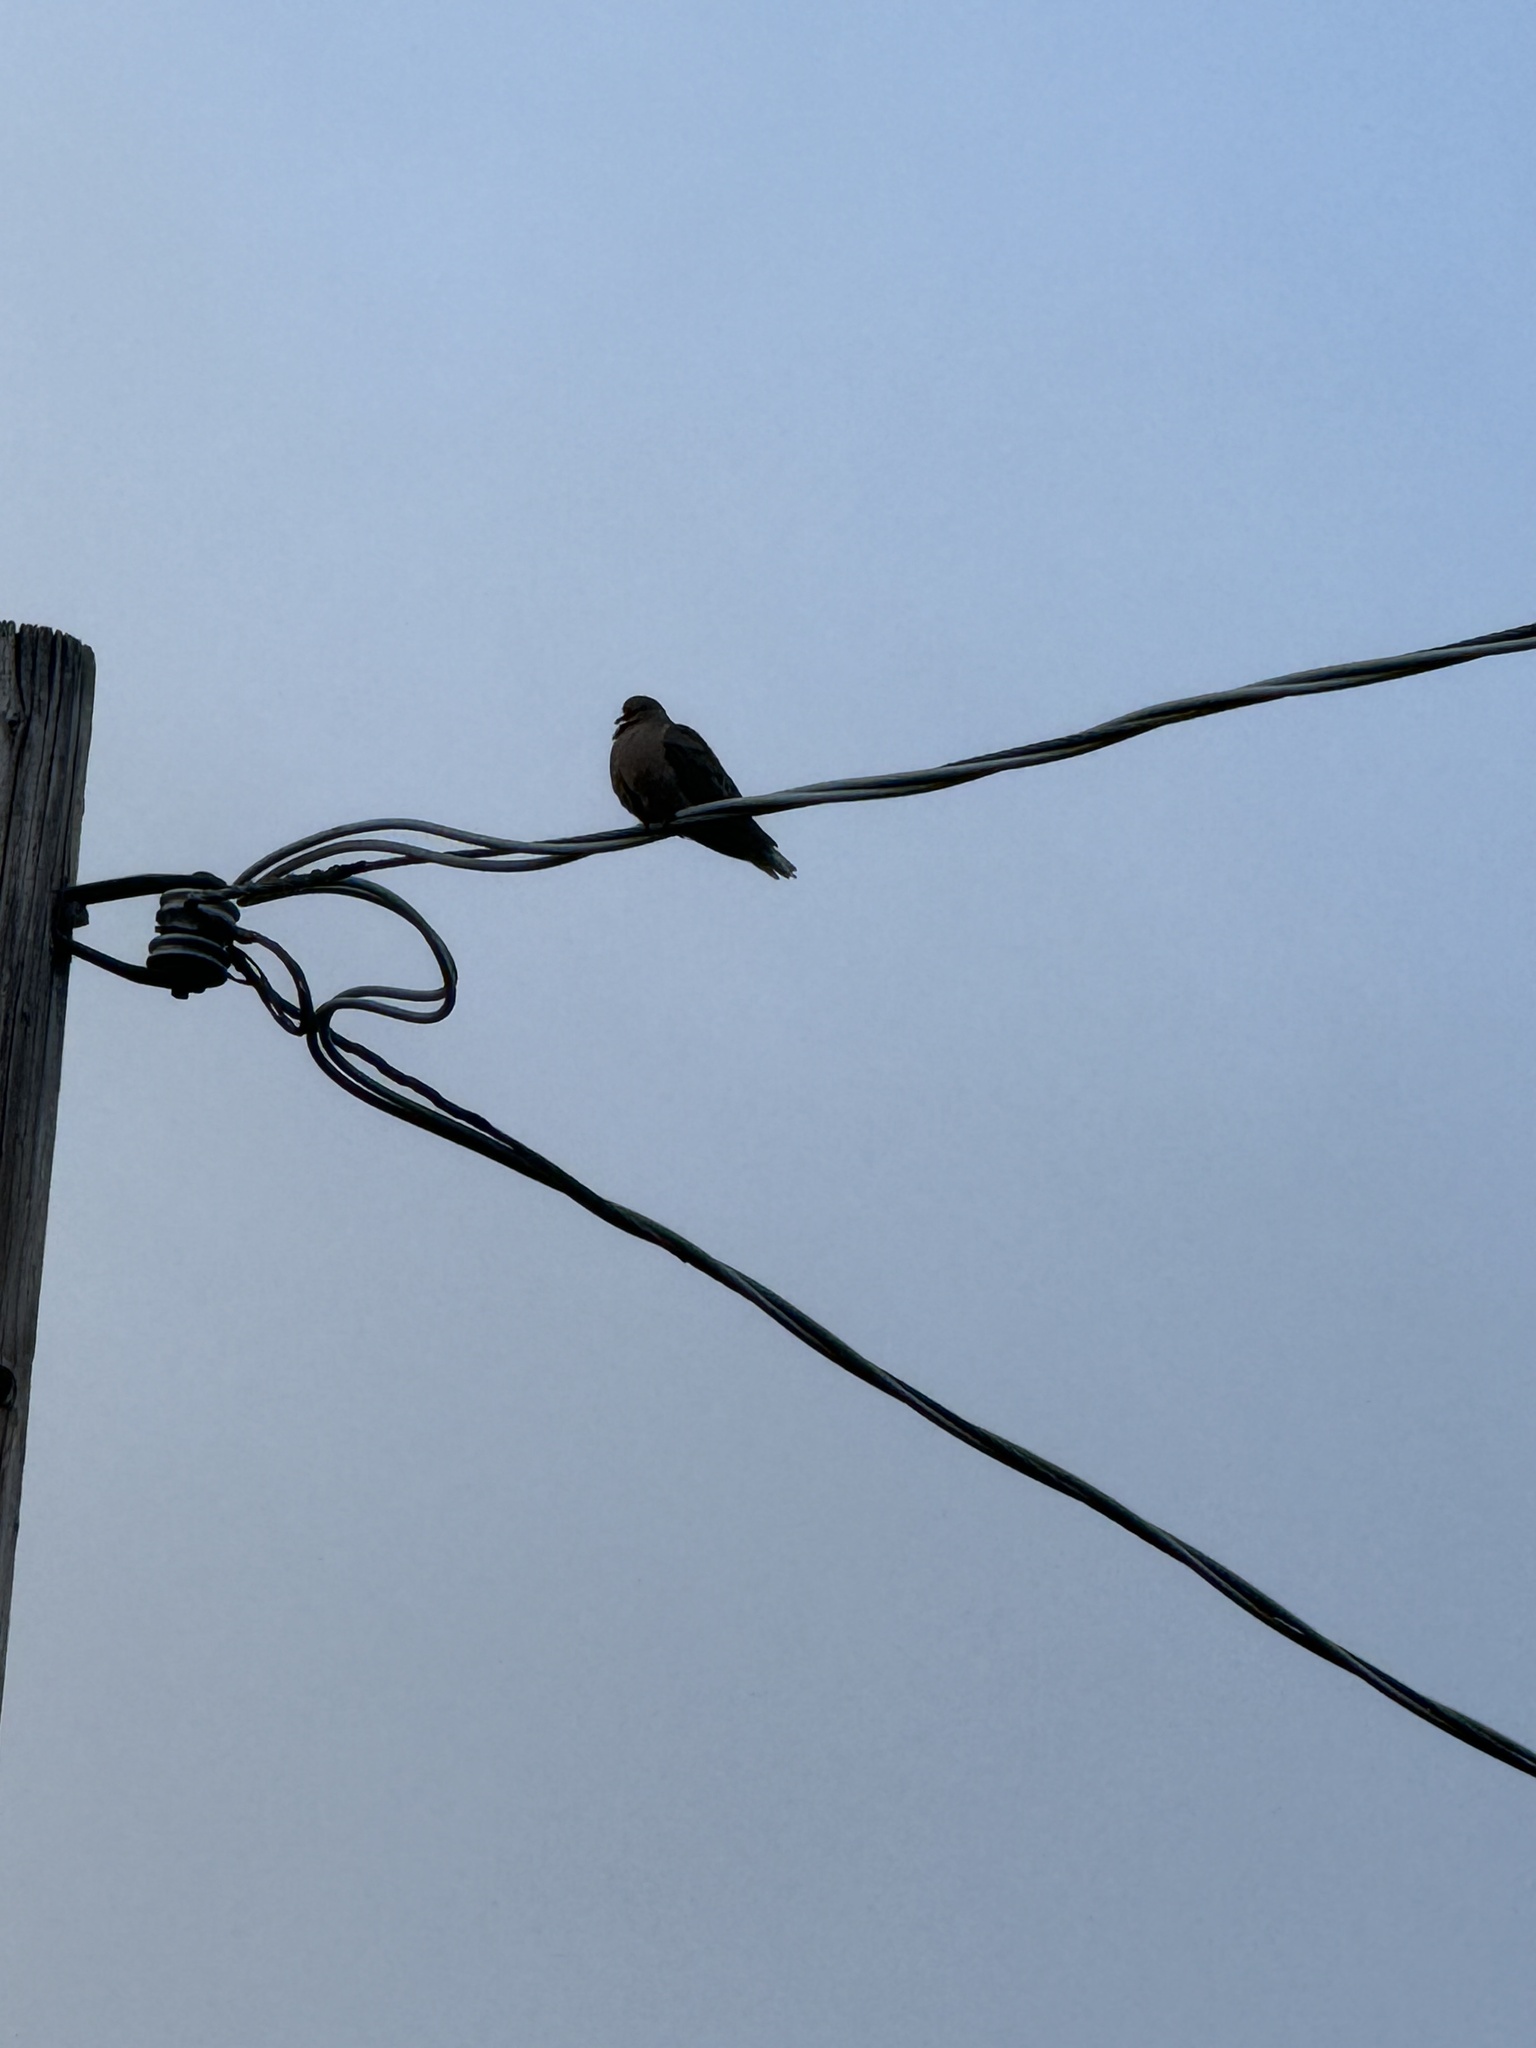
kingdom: Animalia
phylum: Chordata
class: Aves
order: Columbiformes
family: Columbidae
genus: Zenaida
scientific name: Zenaida macroura
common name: Mourning dove
